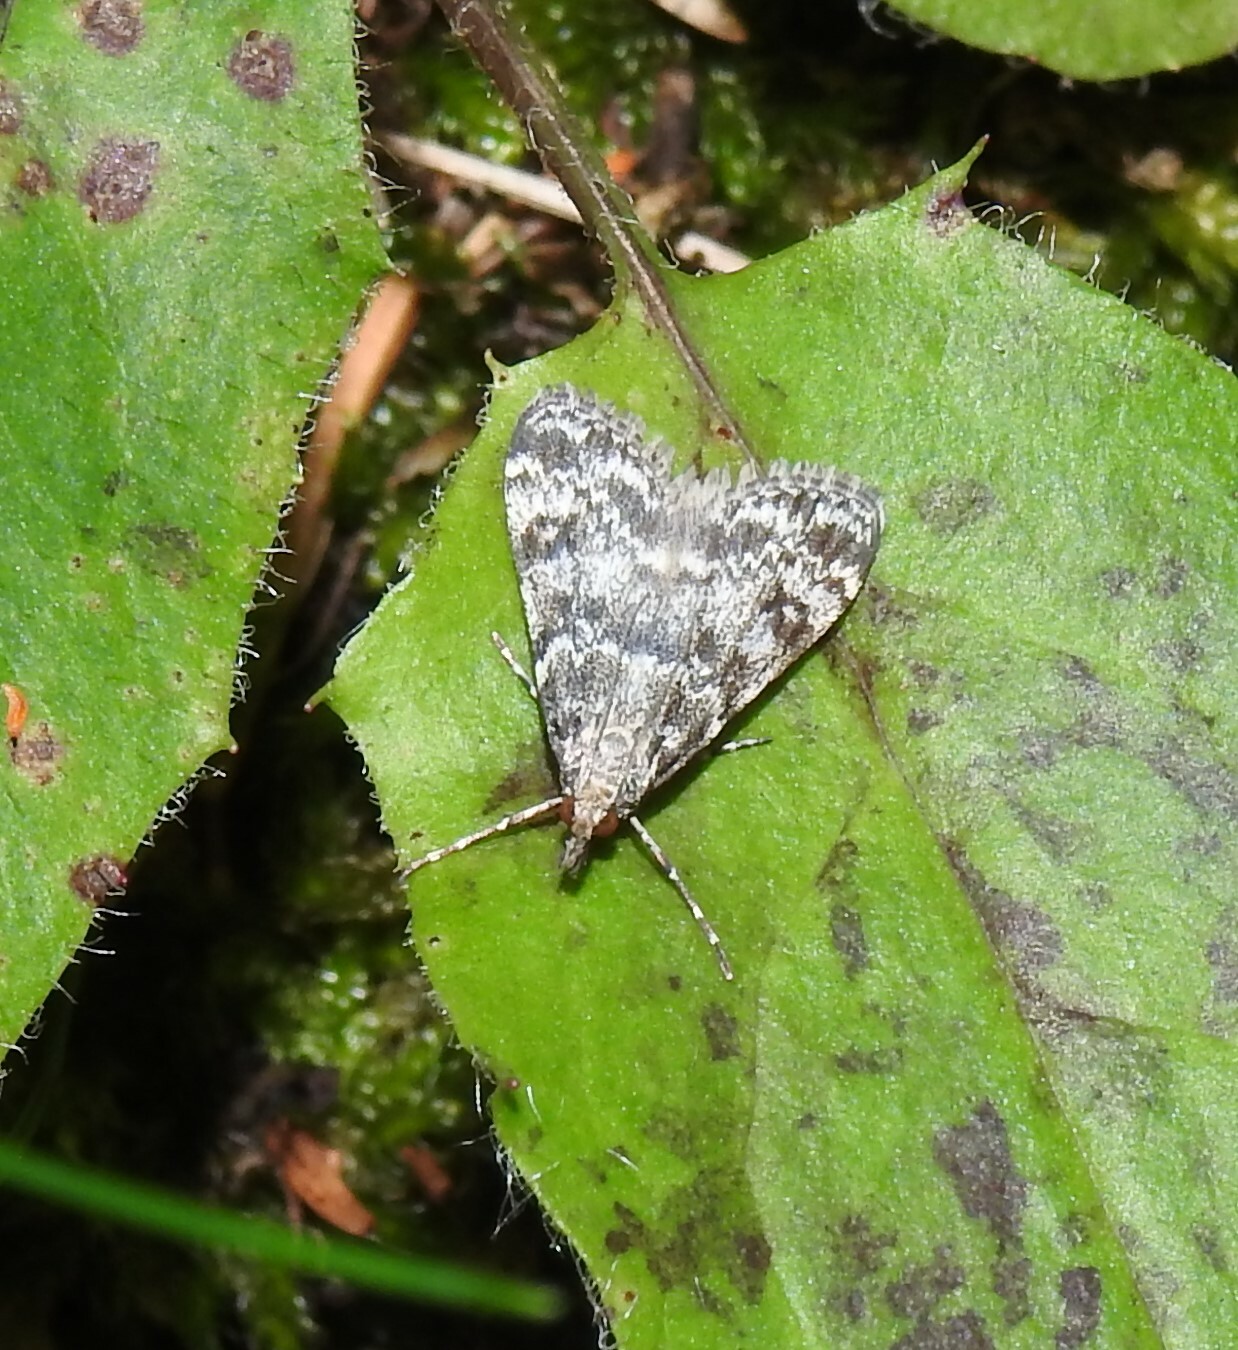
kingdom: Animalia
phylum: Arthropoda
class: Insecta
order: Lepidoptera
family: Crambidae
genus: Eudonia
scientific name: Eudonia sudetica
